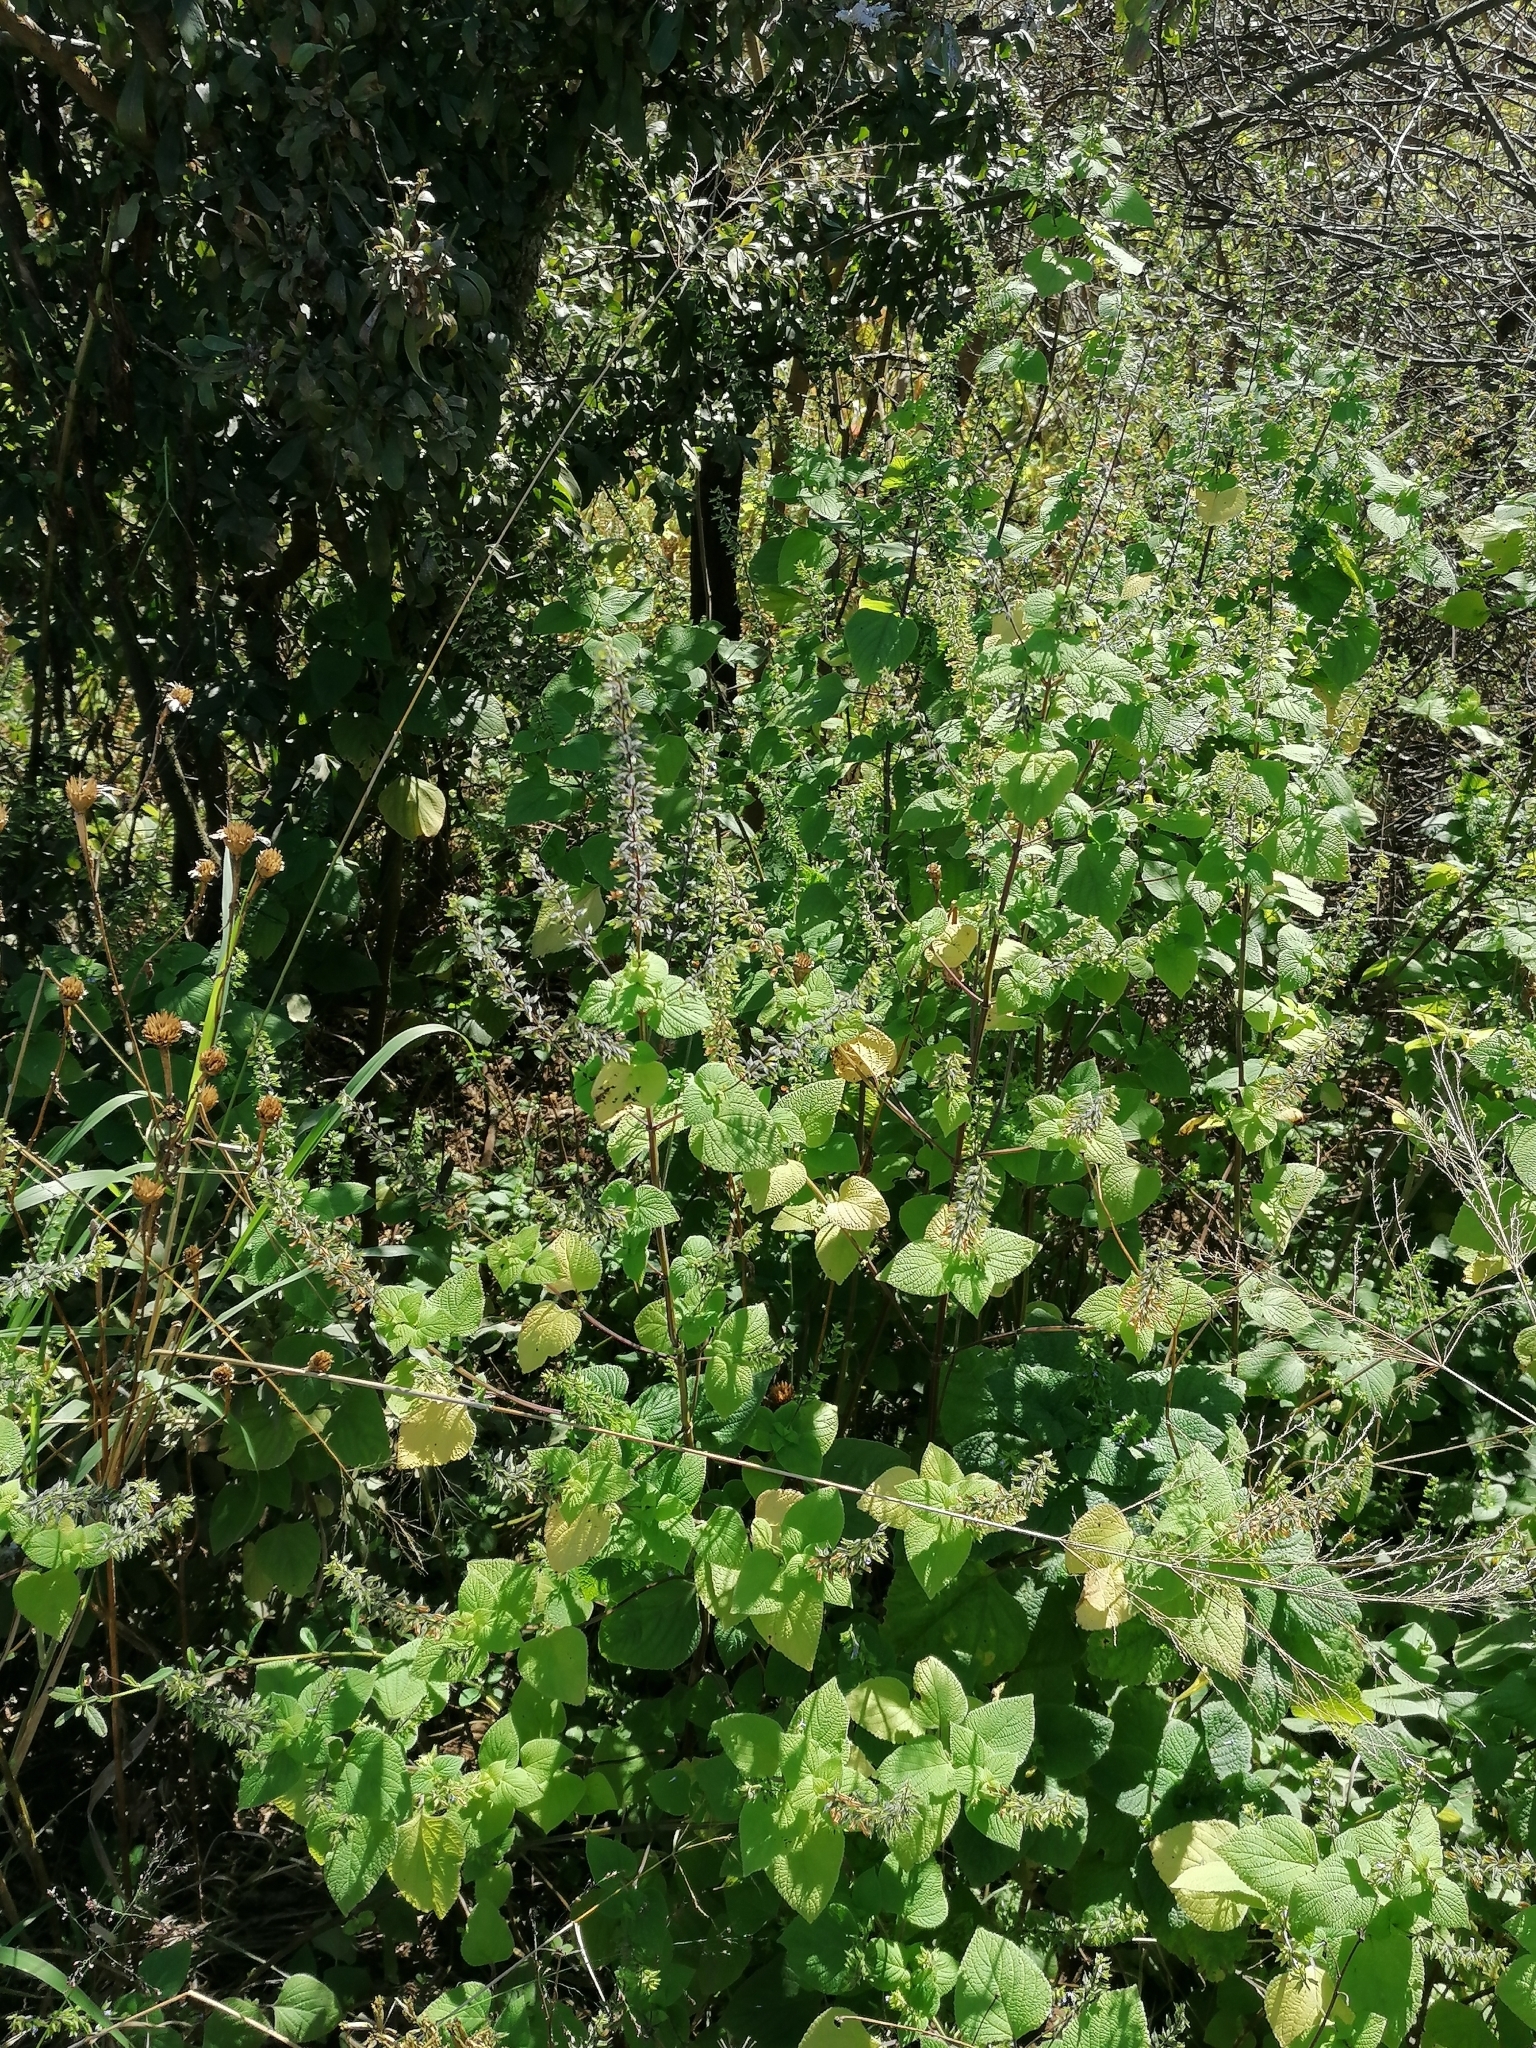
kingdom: Plantae
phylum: Tracheophyta
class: Magnoliopsida
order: Lamiales
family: Lamiaceae
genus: Salvia
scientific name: Salvia tiliifolia
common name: Lindenleaf sage
